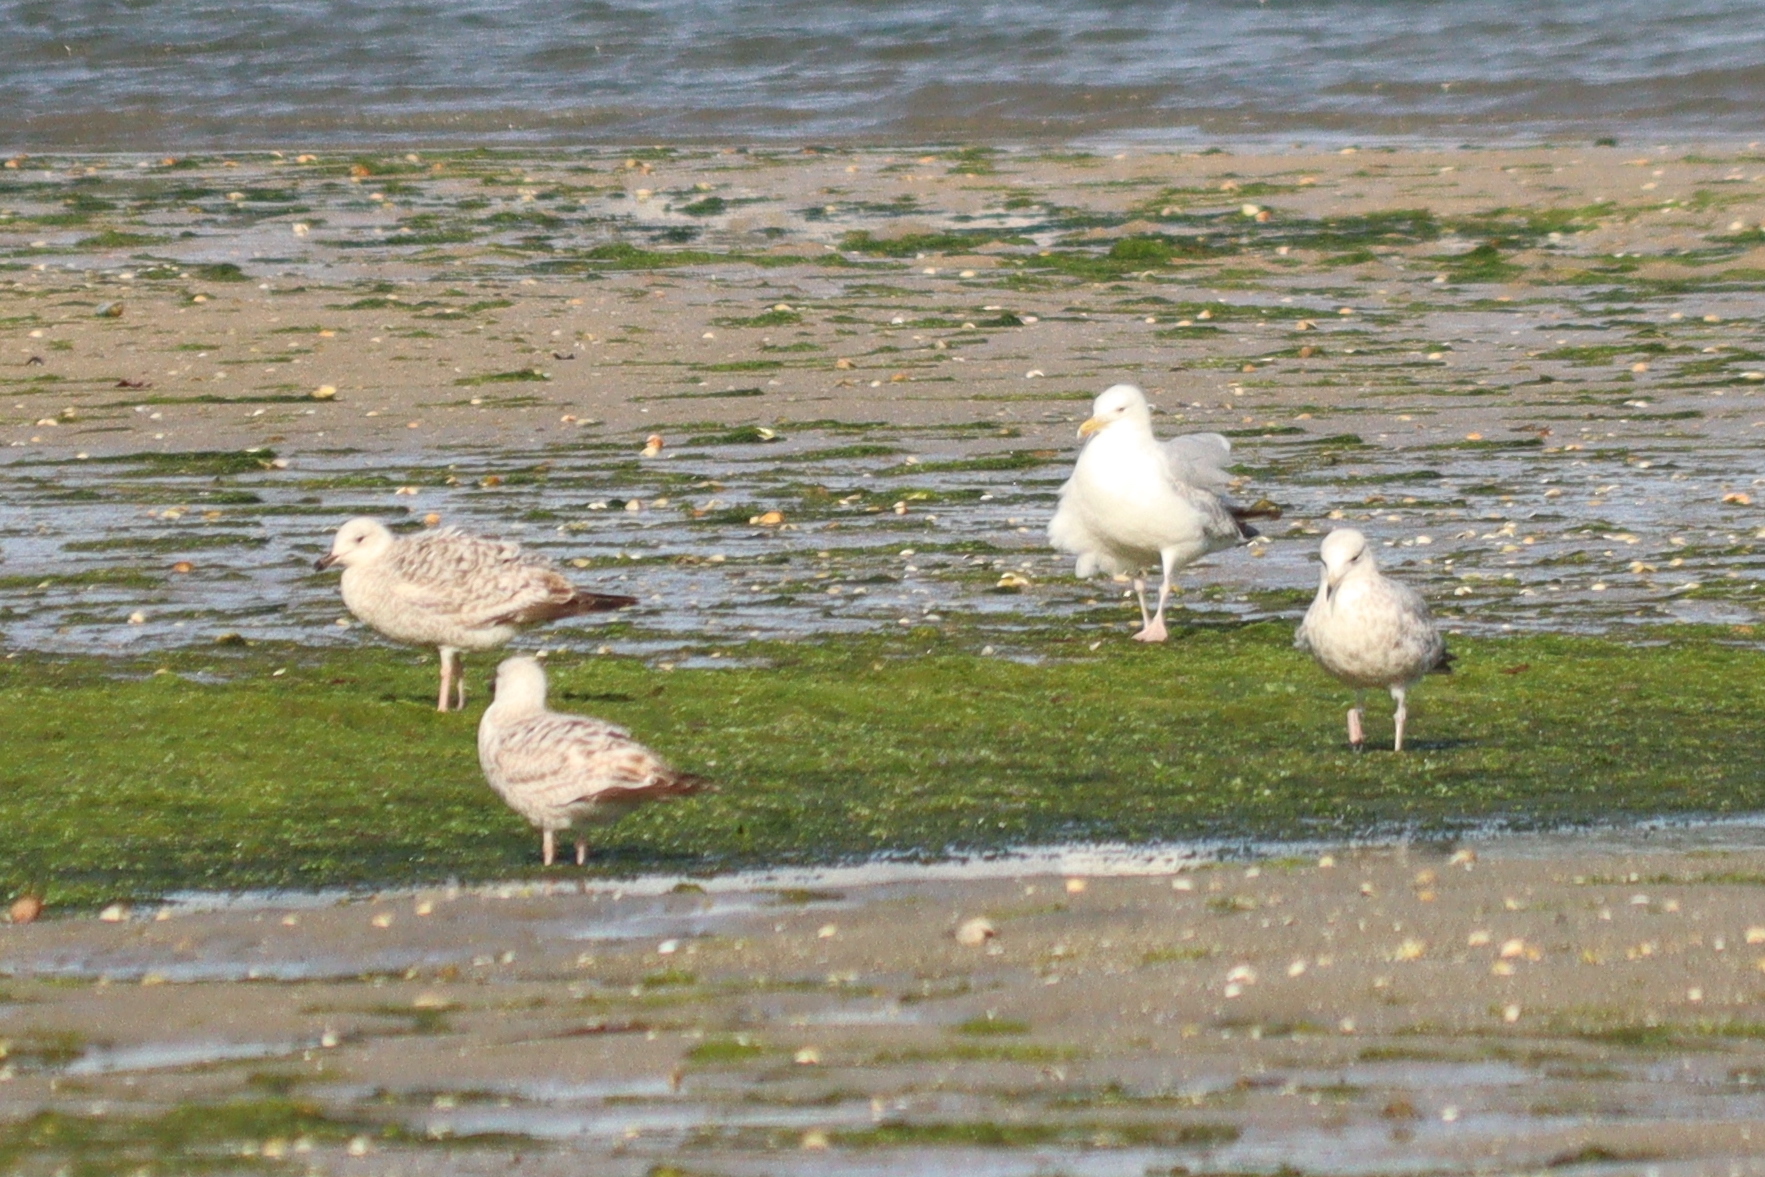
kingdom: Animalia
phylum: Chordata
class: Aves
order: Charadriiformes
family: Laridae
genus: Larus
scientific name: Larus argentatus
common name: Herring gull
